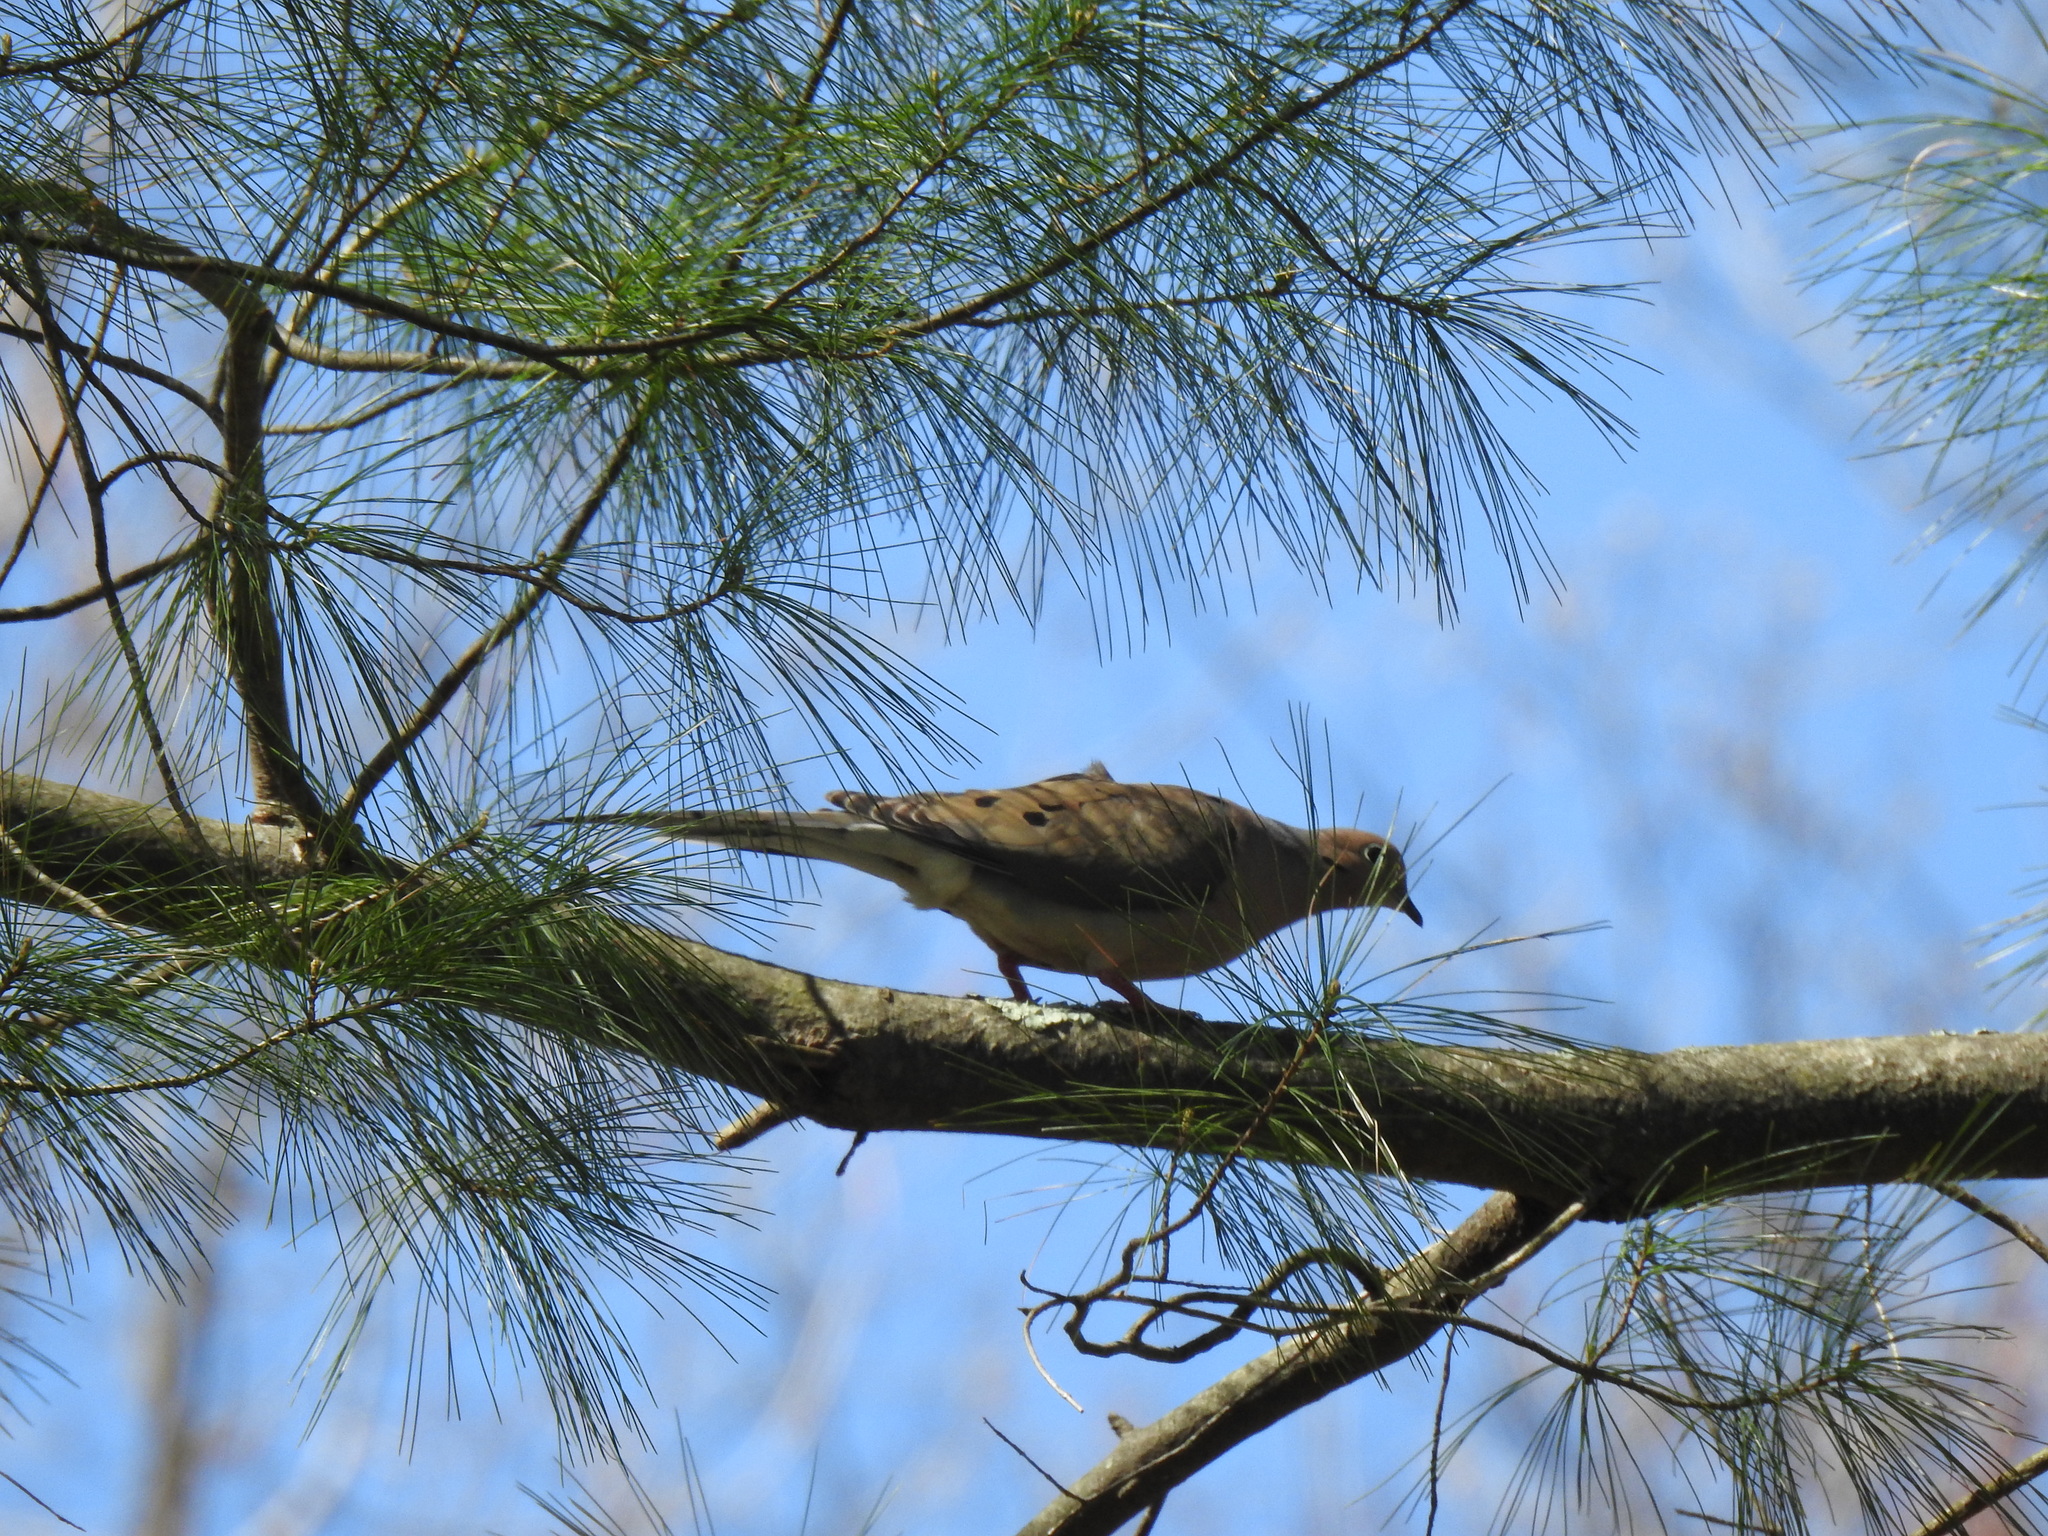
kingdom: Animalia
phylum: Chordata
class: Aves
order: Columbiformes
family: Columbidae
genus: Zenaida
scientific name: Zenaida macroura
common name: Mourning dove
